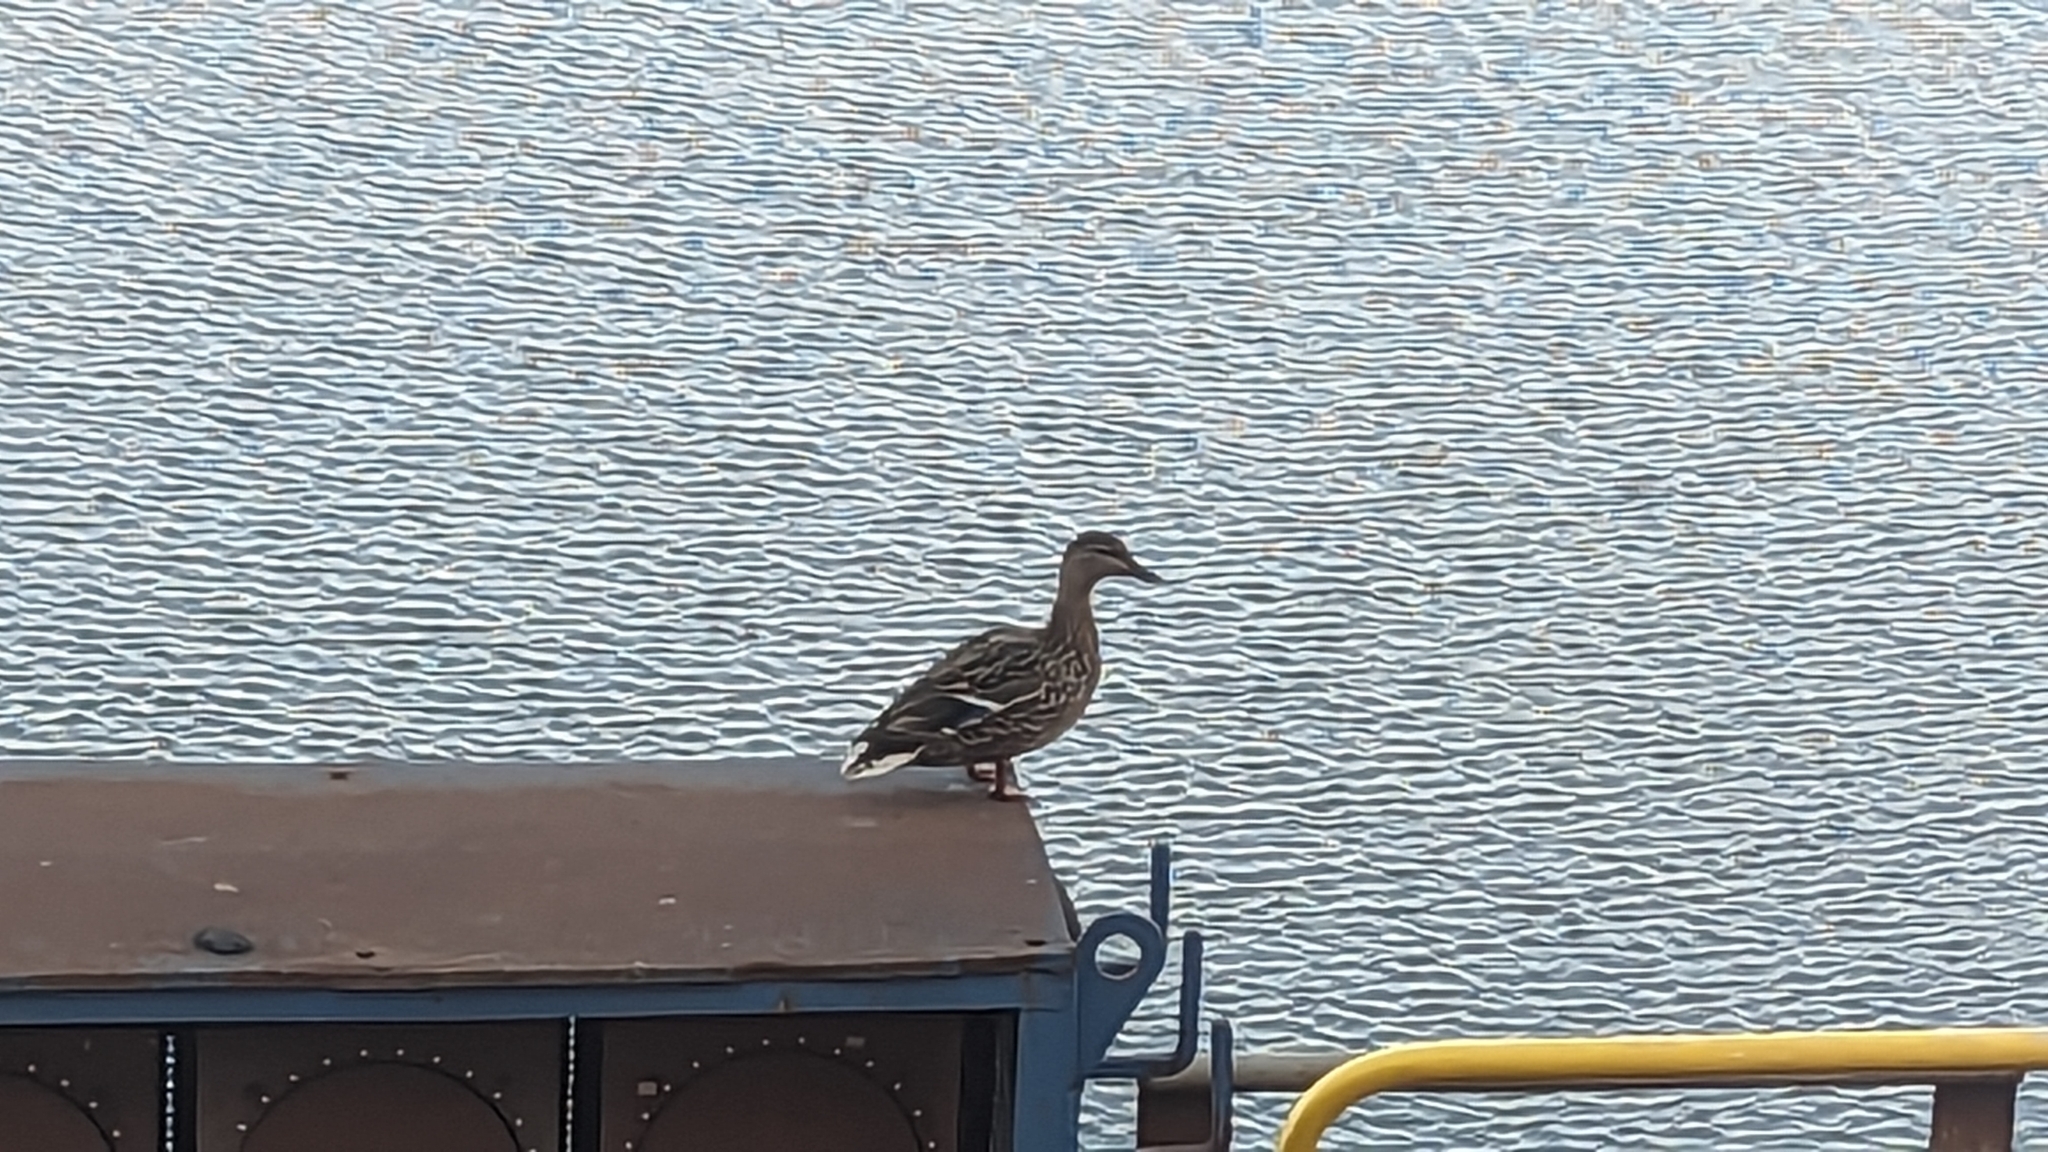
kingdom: Animalia
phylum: Chordata
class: Aves
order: Anseriformes
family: Anatidae
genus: Anas
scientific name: Anas platyrhynchos
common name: Mallard
